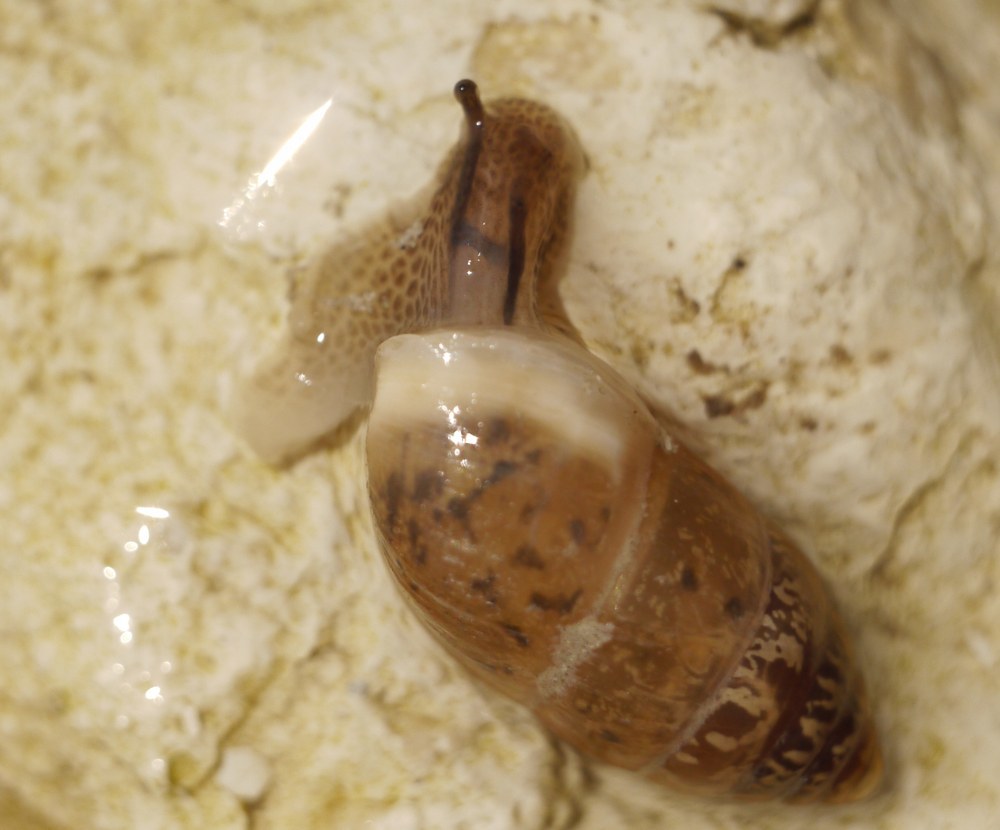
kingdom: Animalia
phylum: Mollusca
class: Gastropoda
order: Stylommatophora
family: Enidae
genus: Chondrula
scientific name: Chondrula tridens
